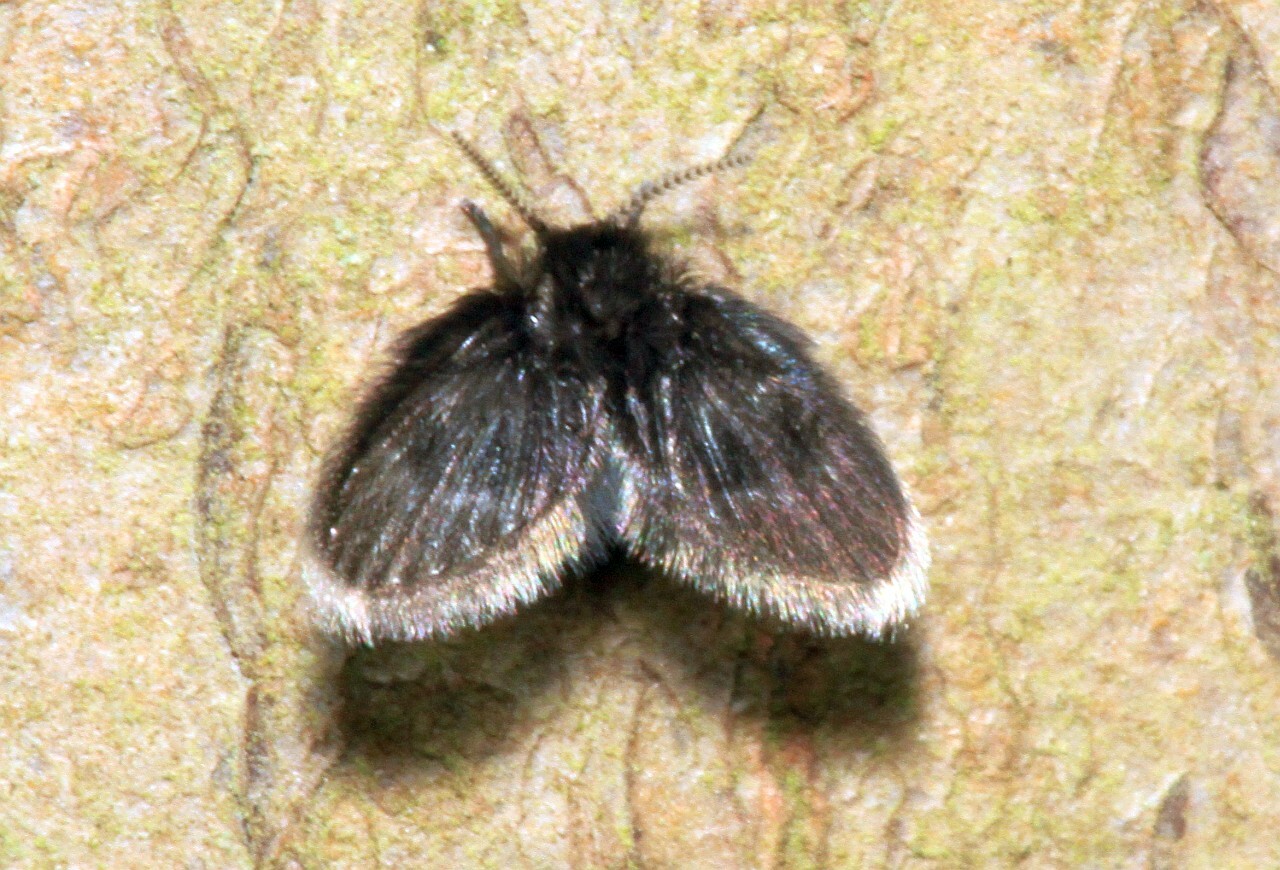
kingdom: Animalia
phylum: Arthropoda
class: Insecta
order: Diptera
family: Psychodidae
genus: Peripsychoda
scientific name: Peripsychoda auriculata
